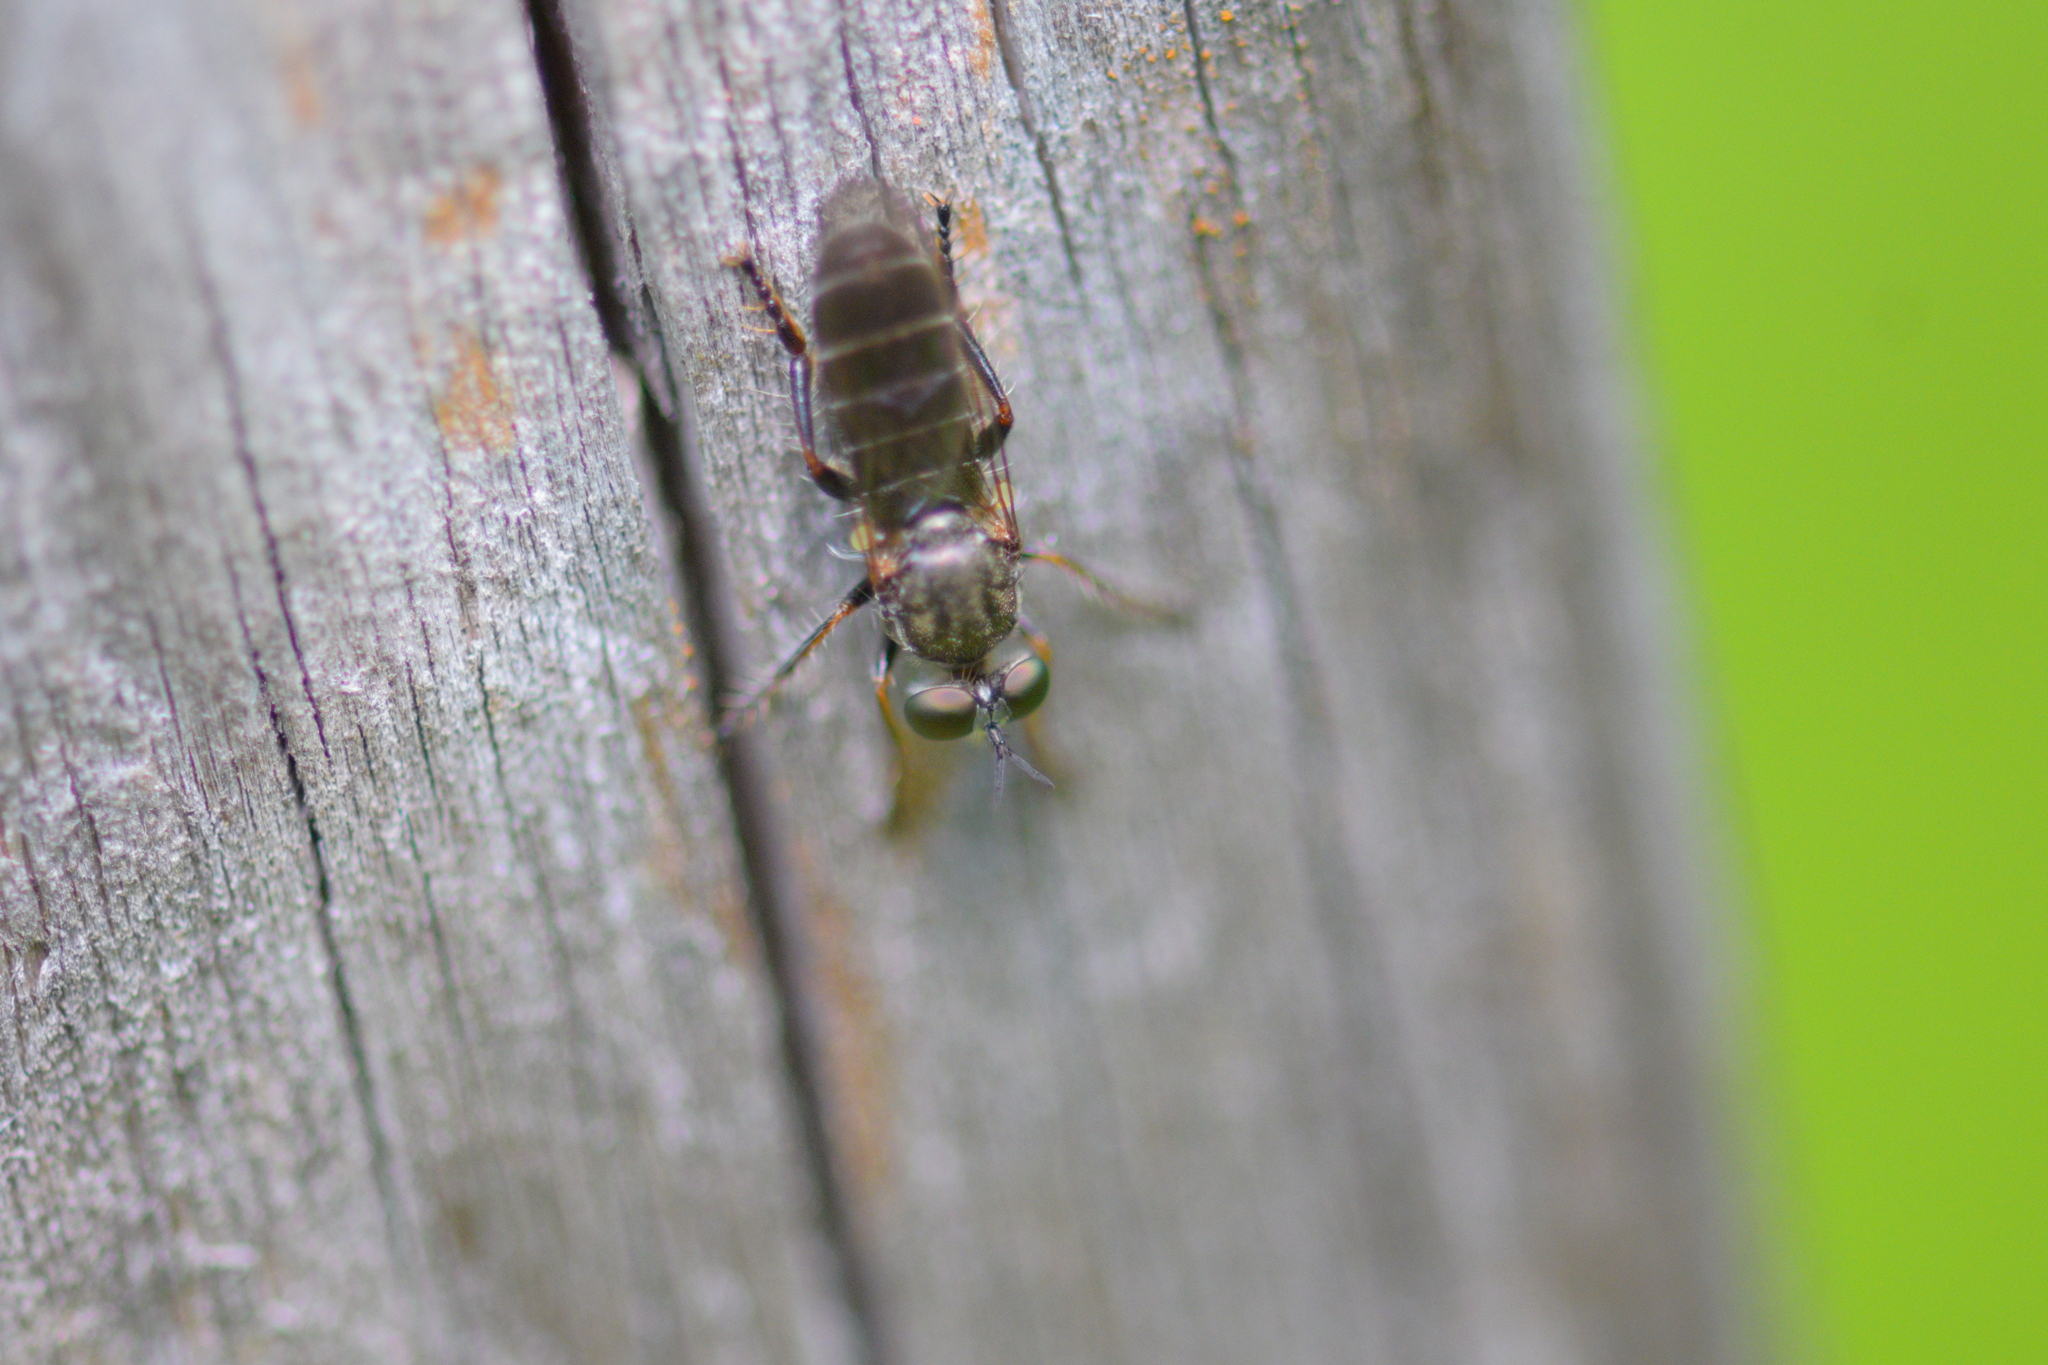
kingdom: Animalia
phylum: Arthropoda
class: Insecta
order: Diptera
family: Asilidae
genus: Atomosia
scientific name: Atomosia puella
